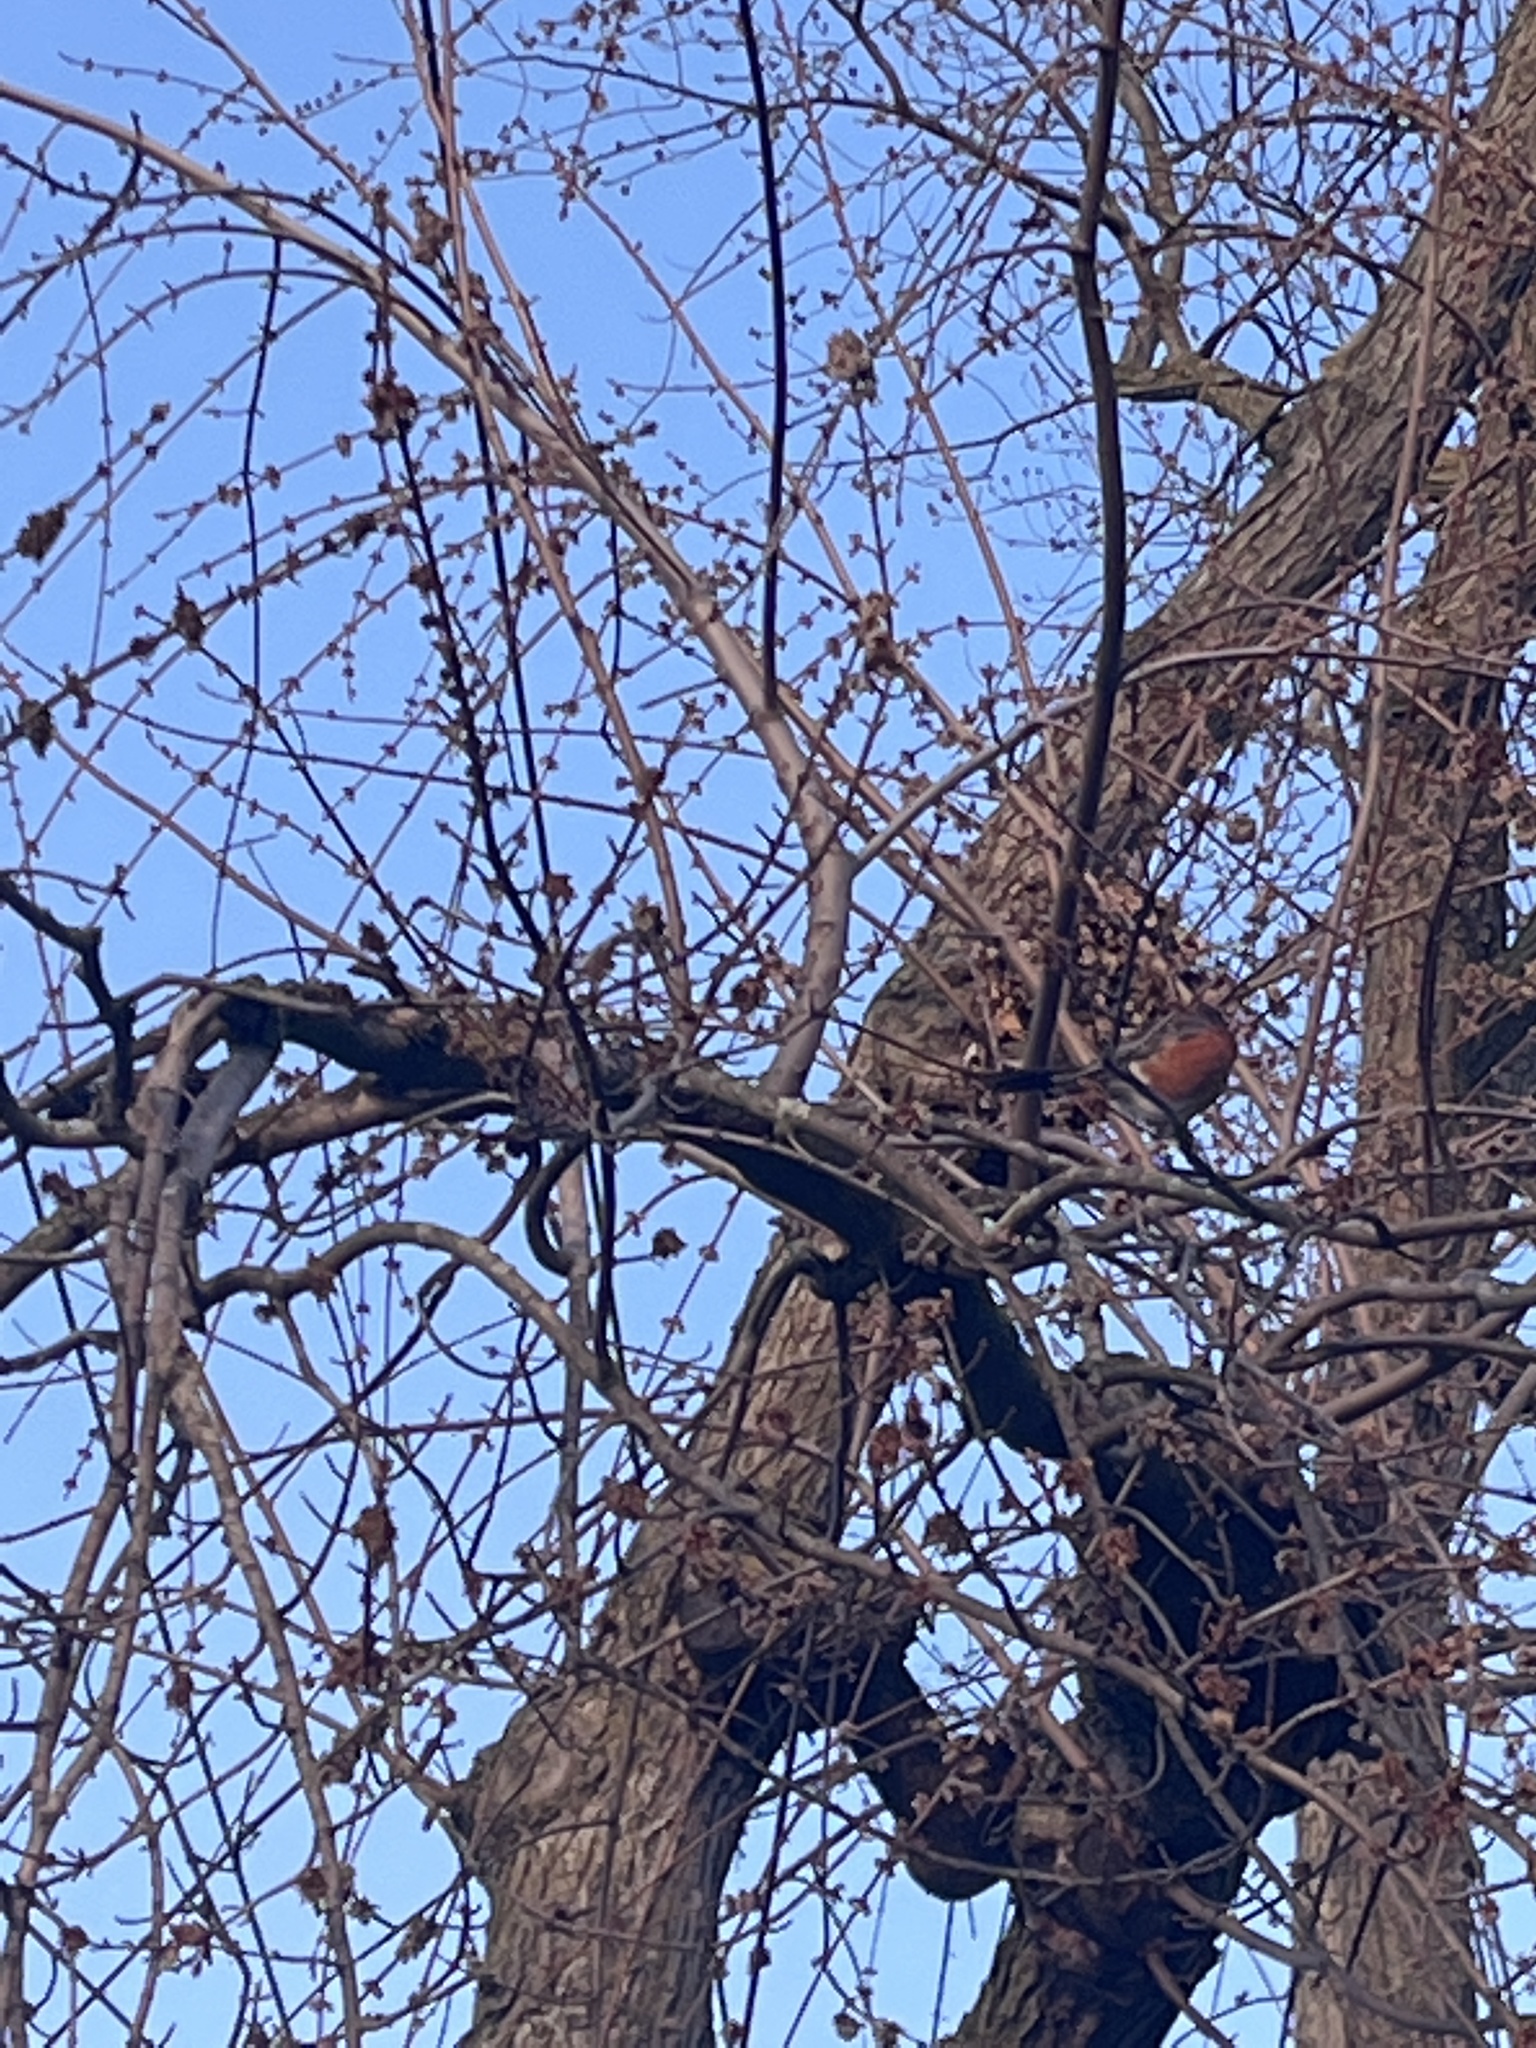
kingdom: Animalia
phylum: Chordata
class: Aves
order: Passeriformes
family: Turdidae
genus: Turdus
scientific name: Turdus migratorius
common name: American robin
